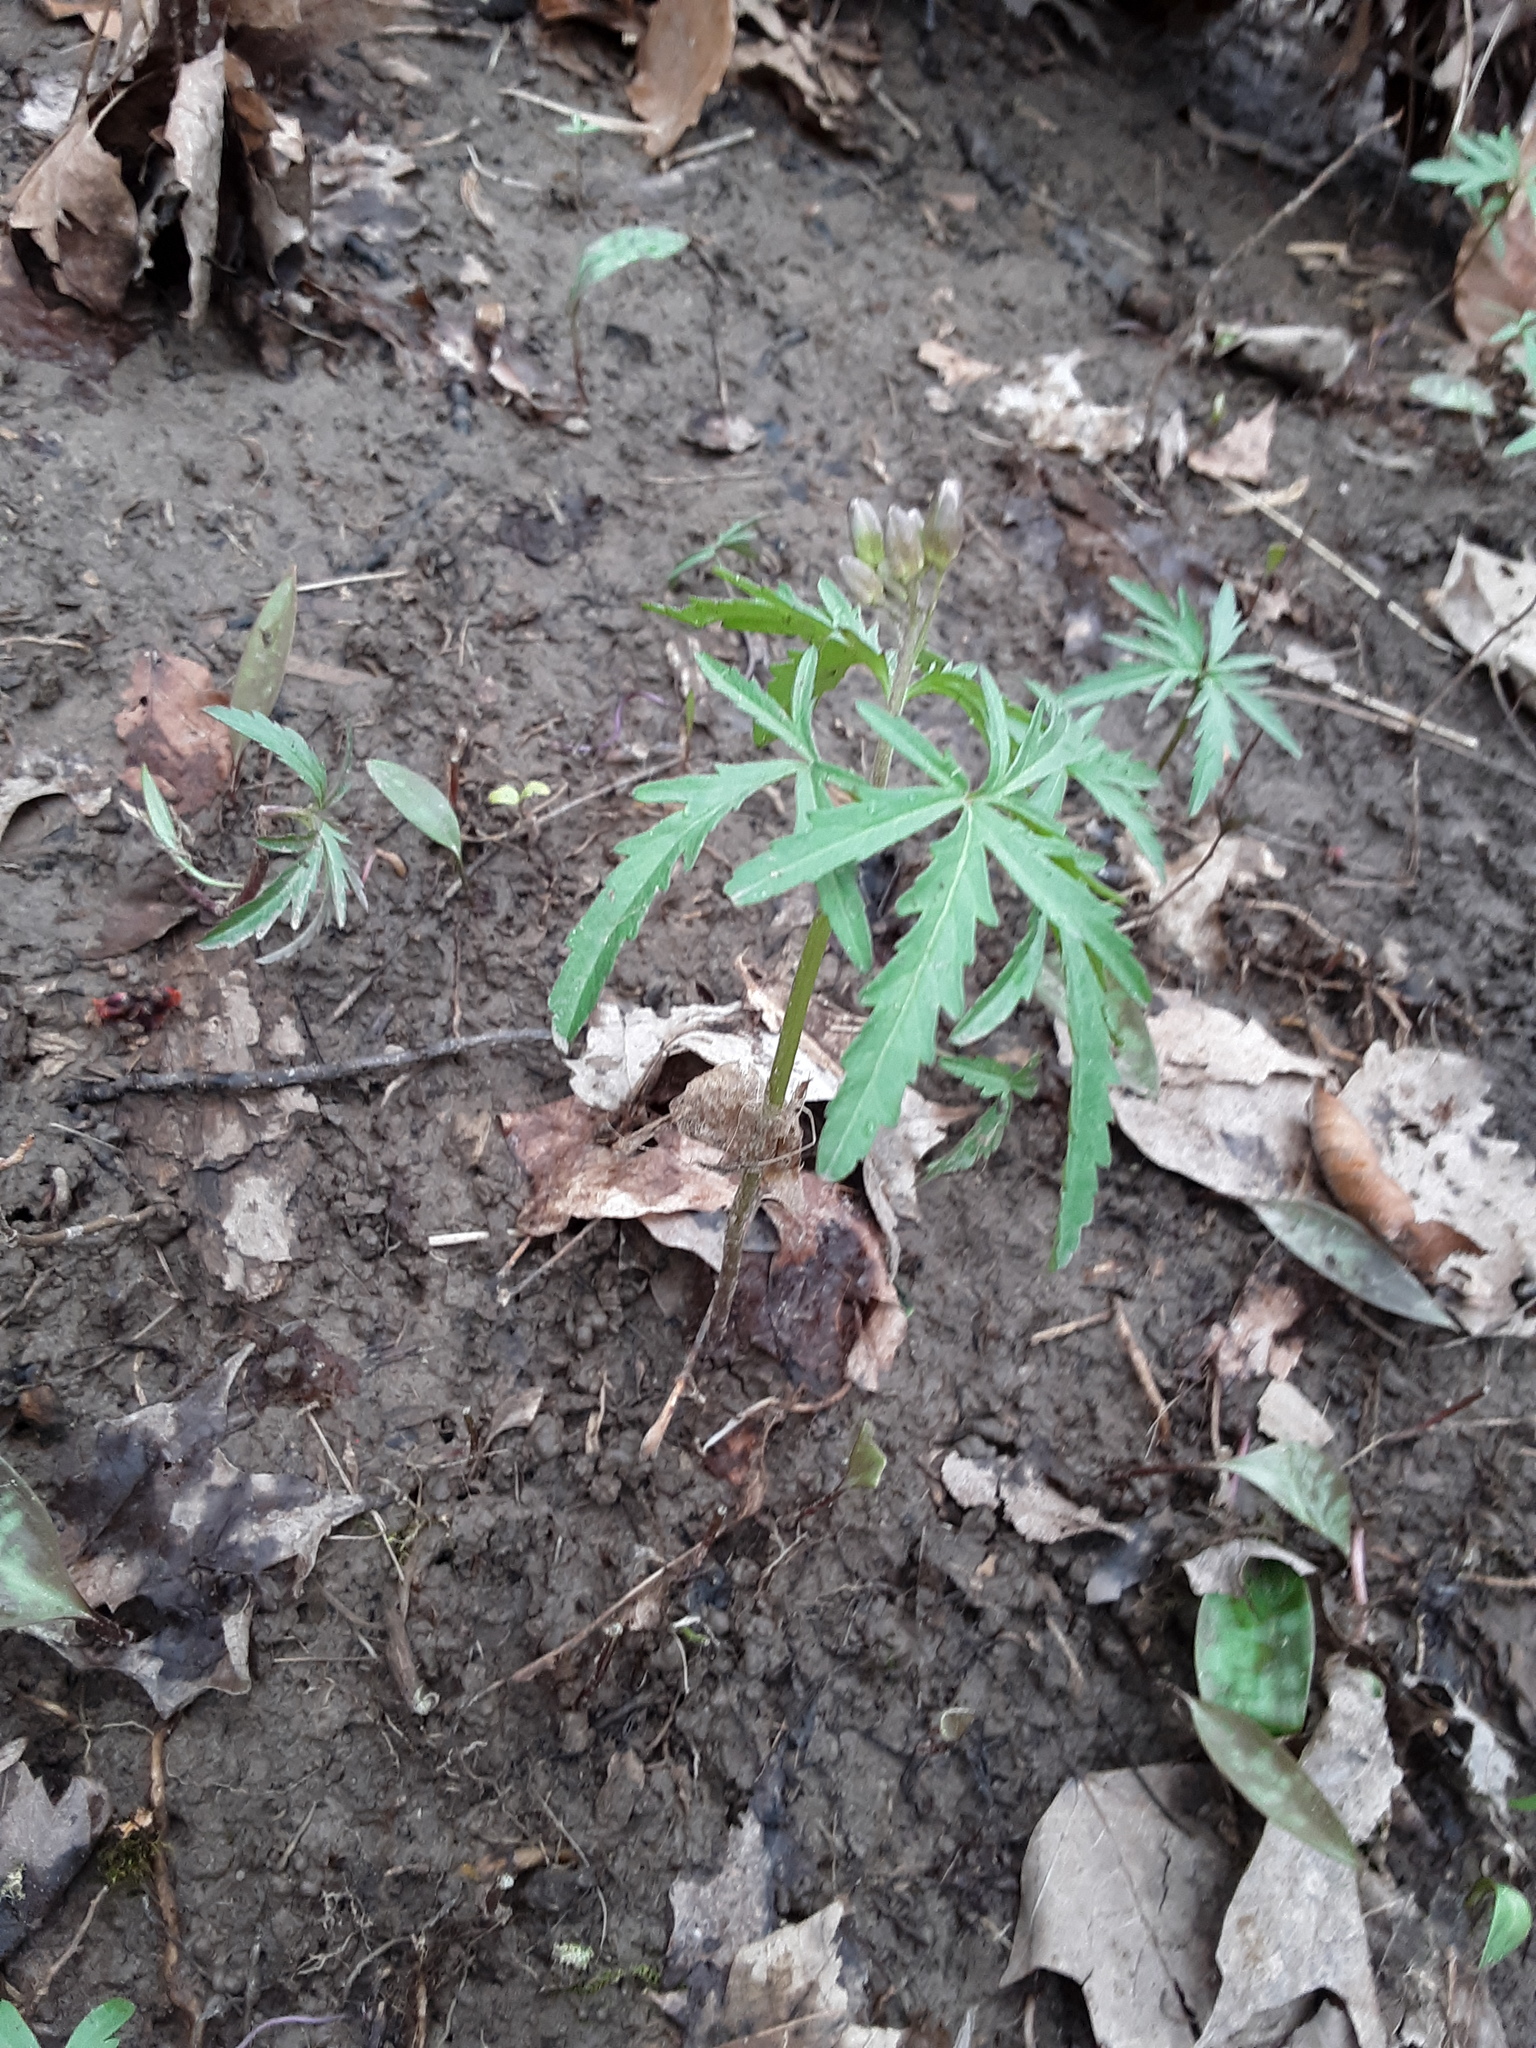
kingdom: Plantae
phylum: Tracheophyta
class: Magnoliopsida
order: Brassicales
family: Brassicaceae
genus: Cardamine
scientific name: Cardamine concatenata
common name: Cut-leaf toothcup
